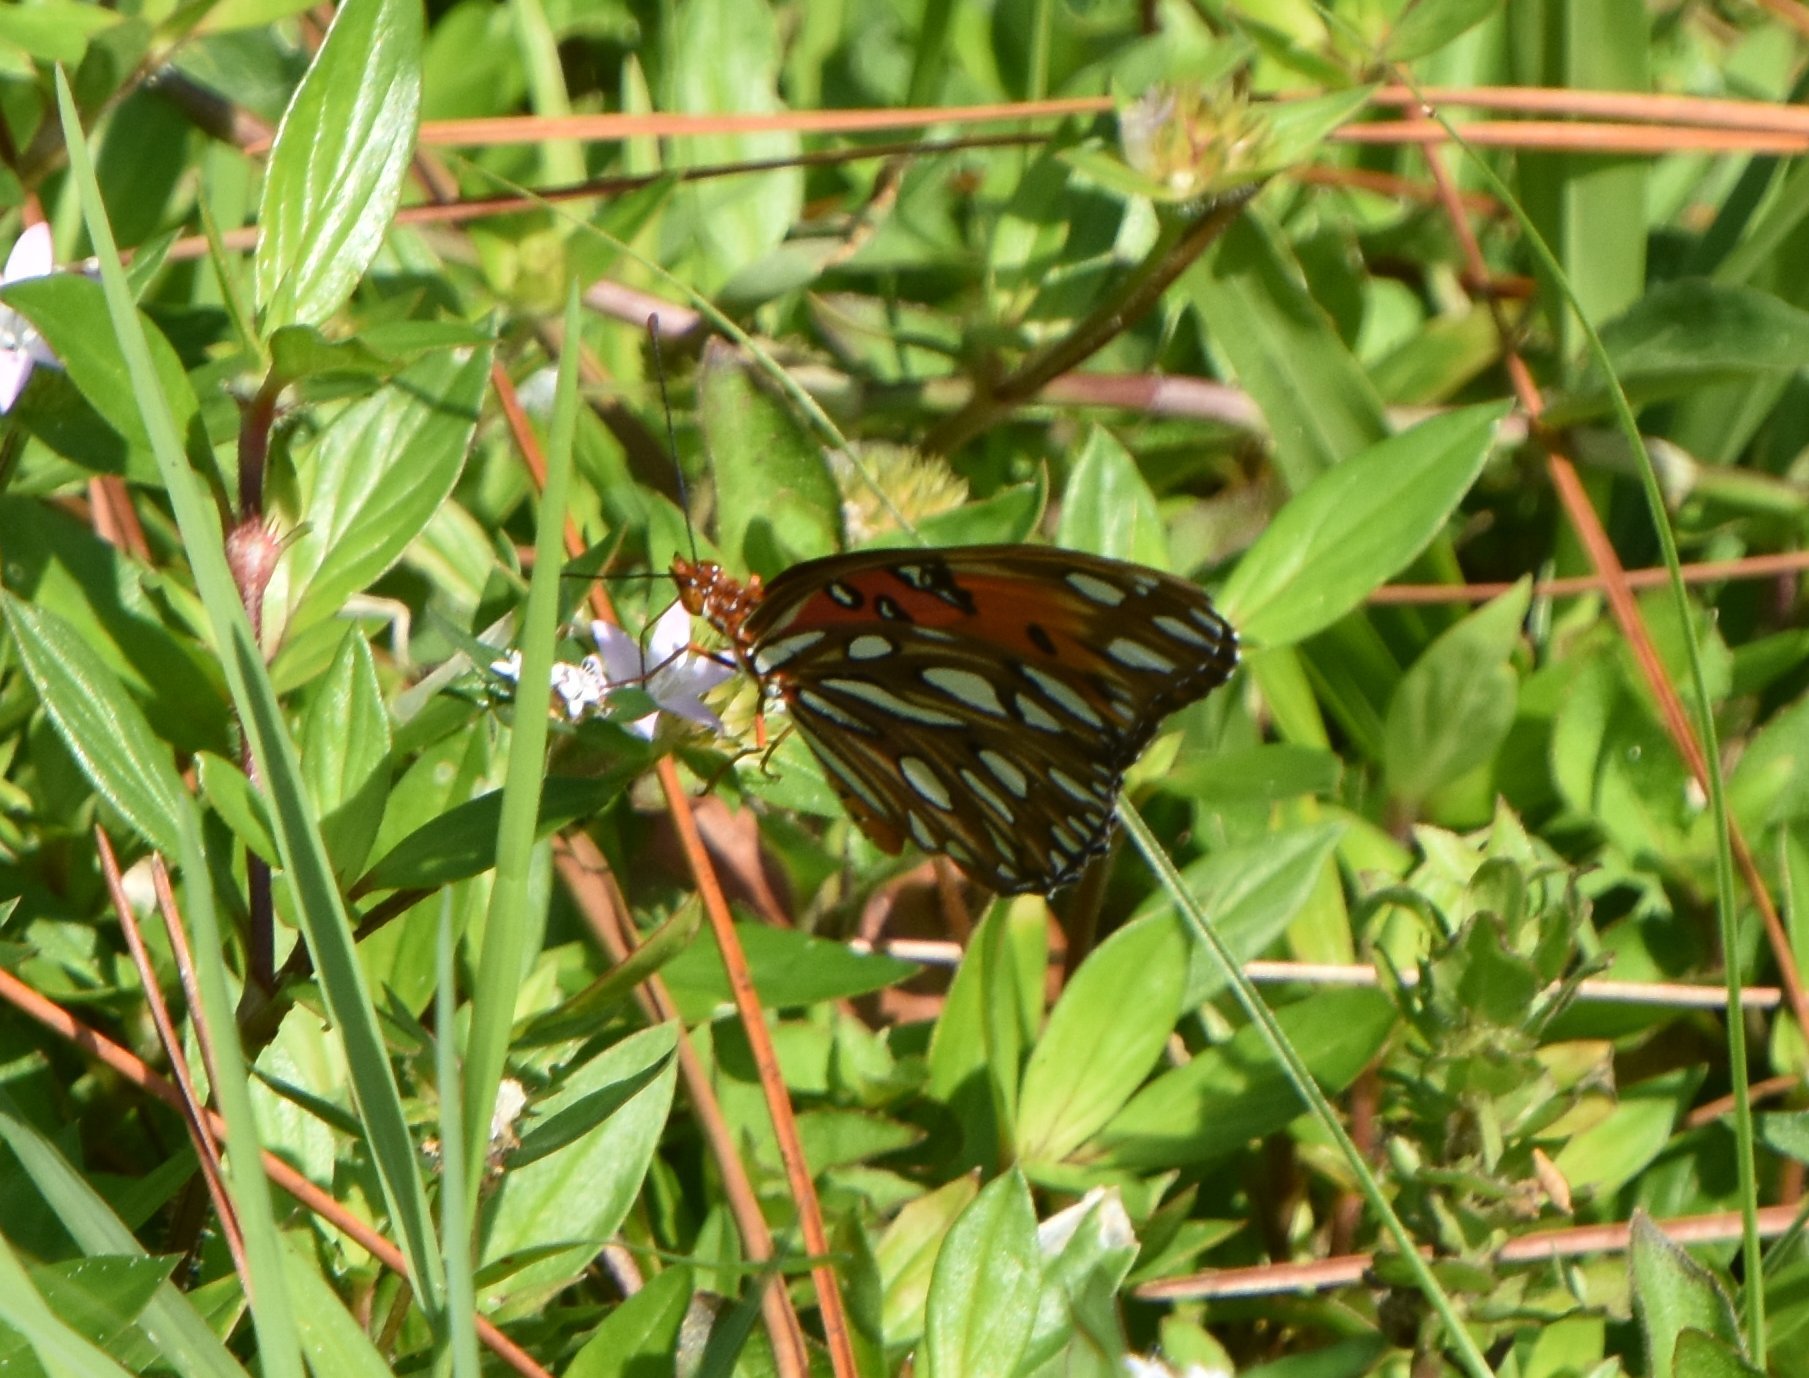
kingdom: Animalia
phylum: Arthropoda
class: Insecta
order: Lepidoptera
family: Nymphalidae
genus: Dione
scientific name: Dione vanillae
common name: Gulf fritillary
